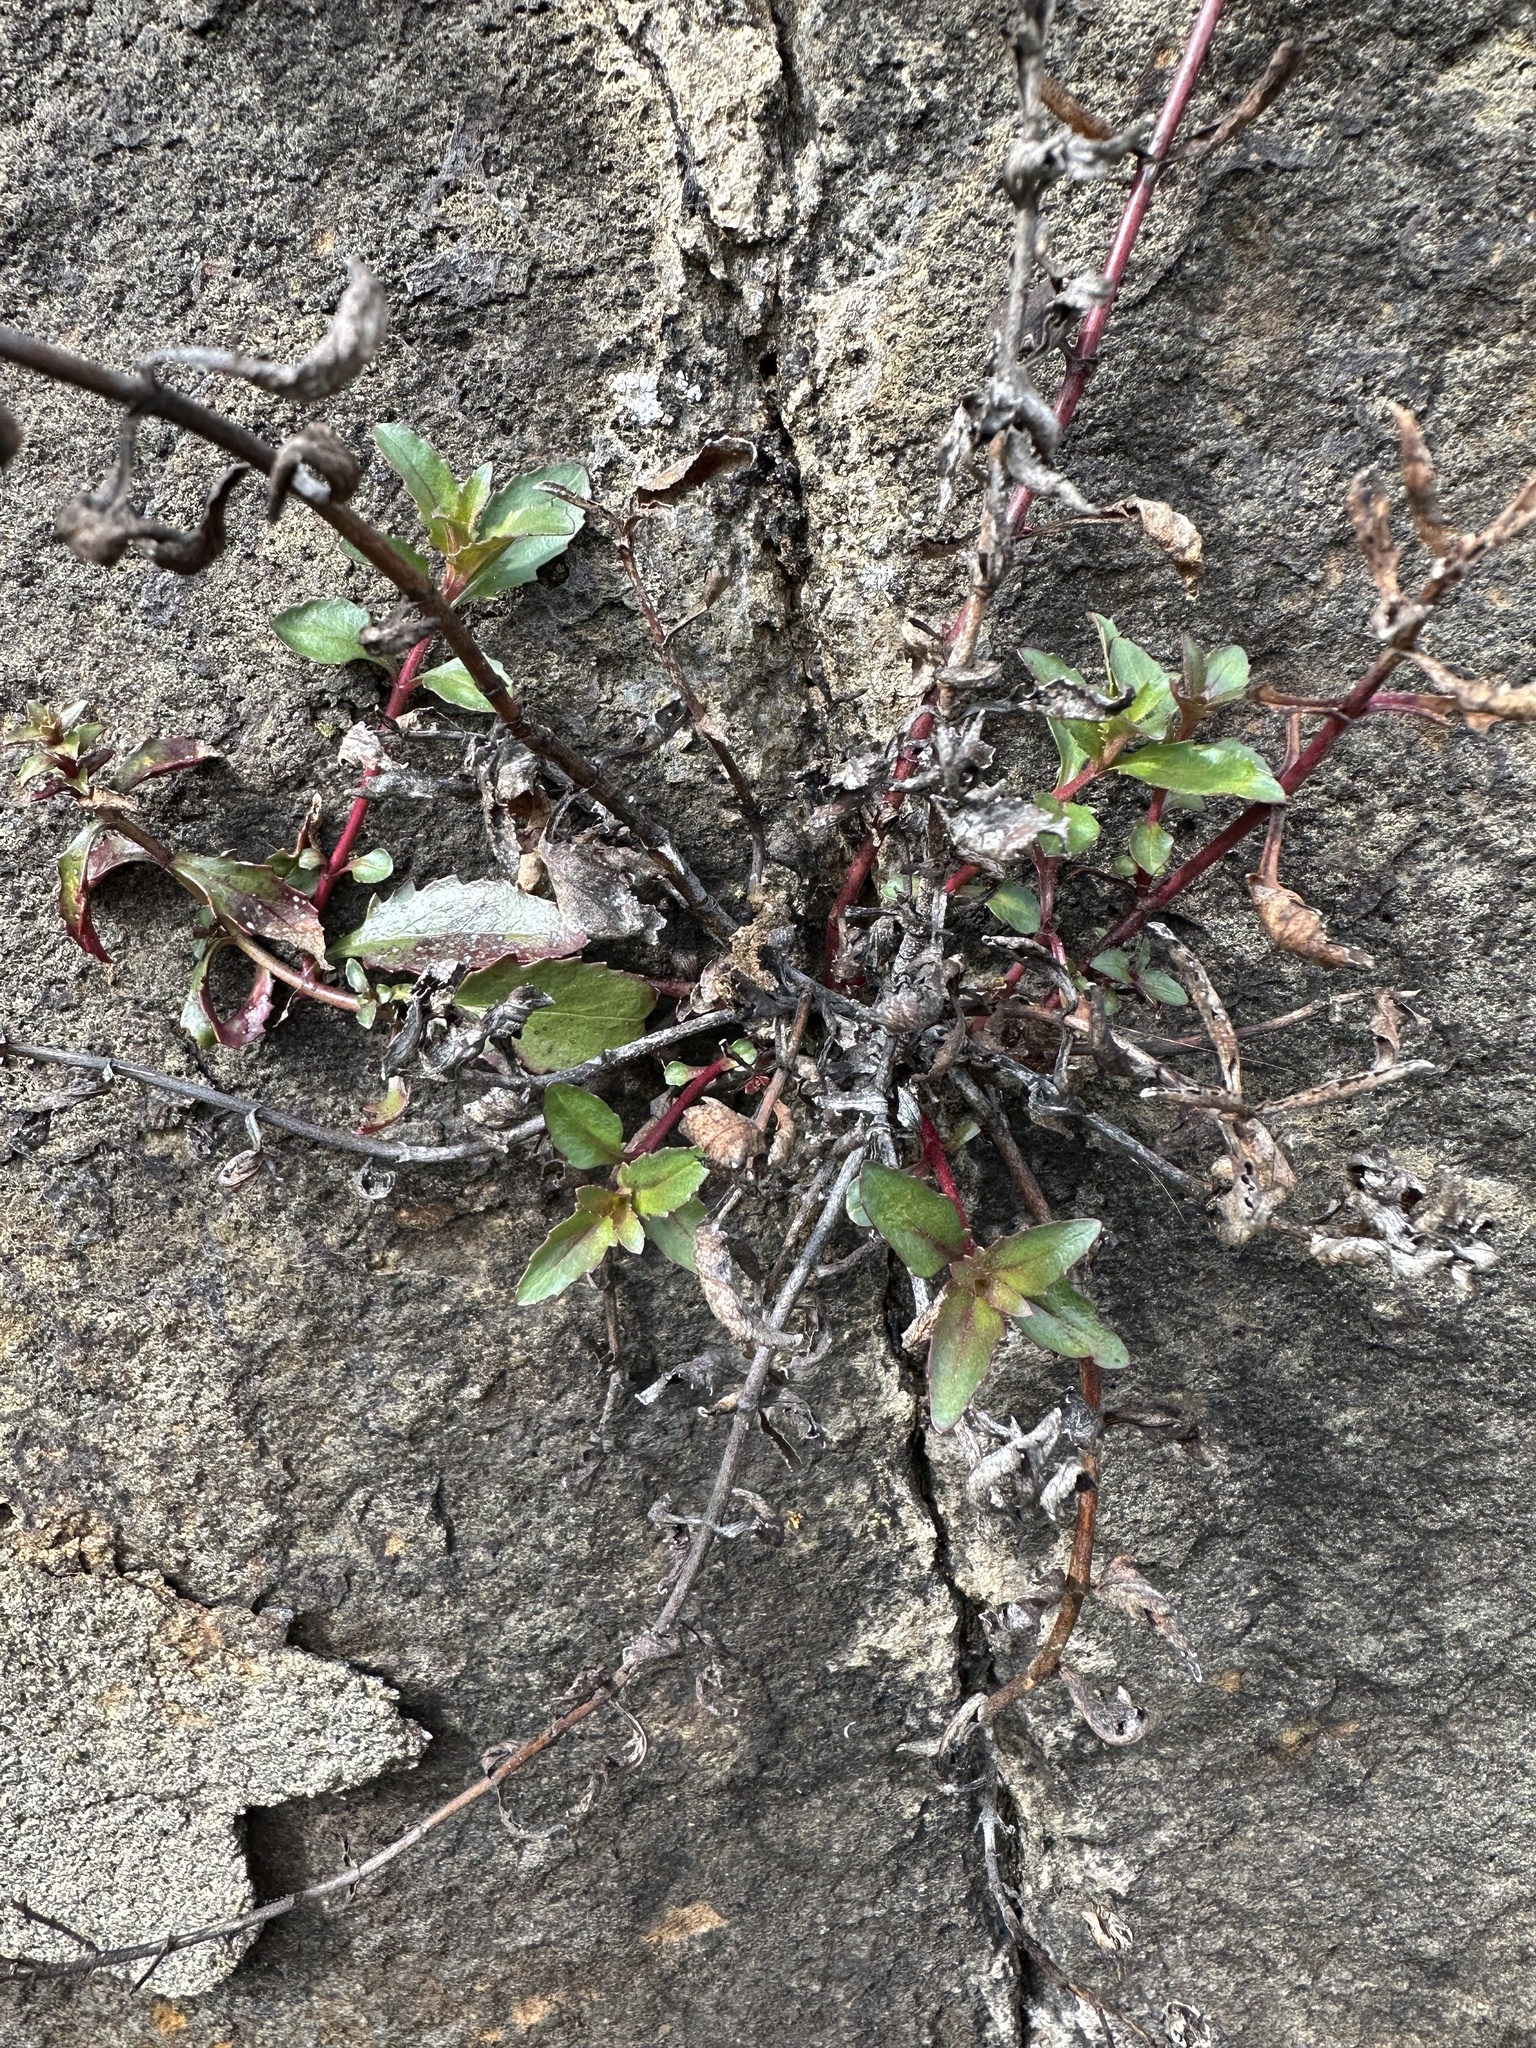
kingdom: Plantae
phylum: Tracheophyta
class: Magnoliopsida
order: Lamiales
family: Plantaginaceae
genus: Penstemon
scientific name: Penstemon richardsonii
